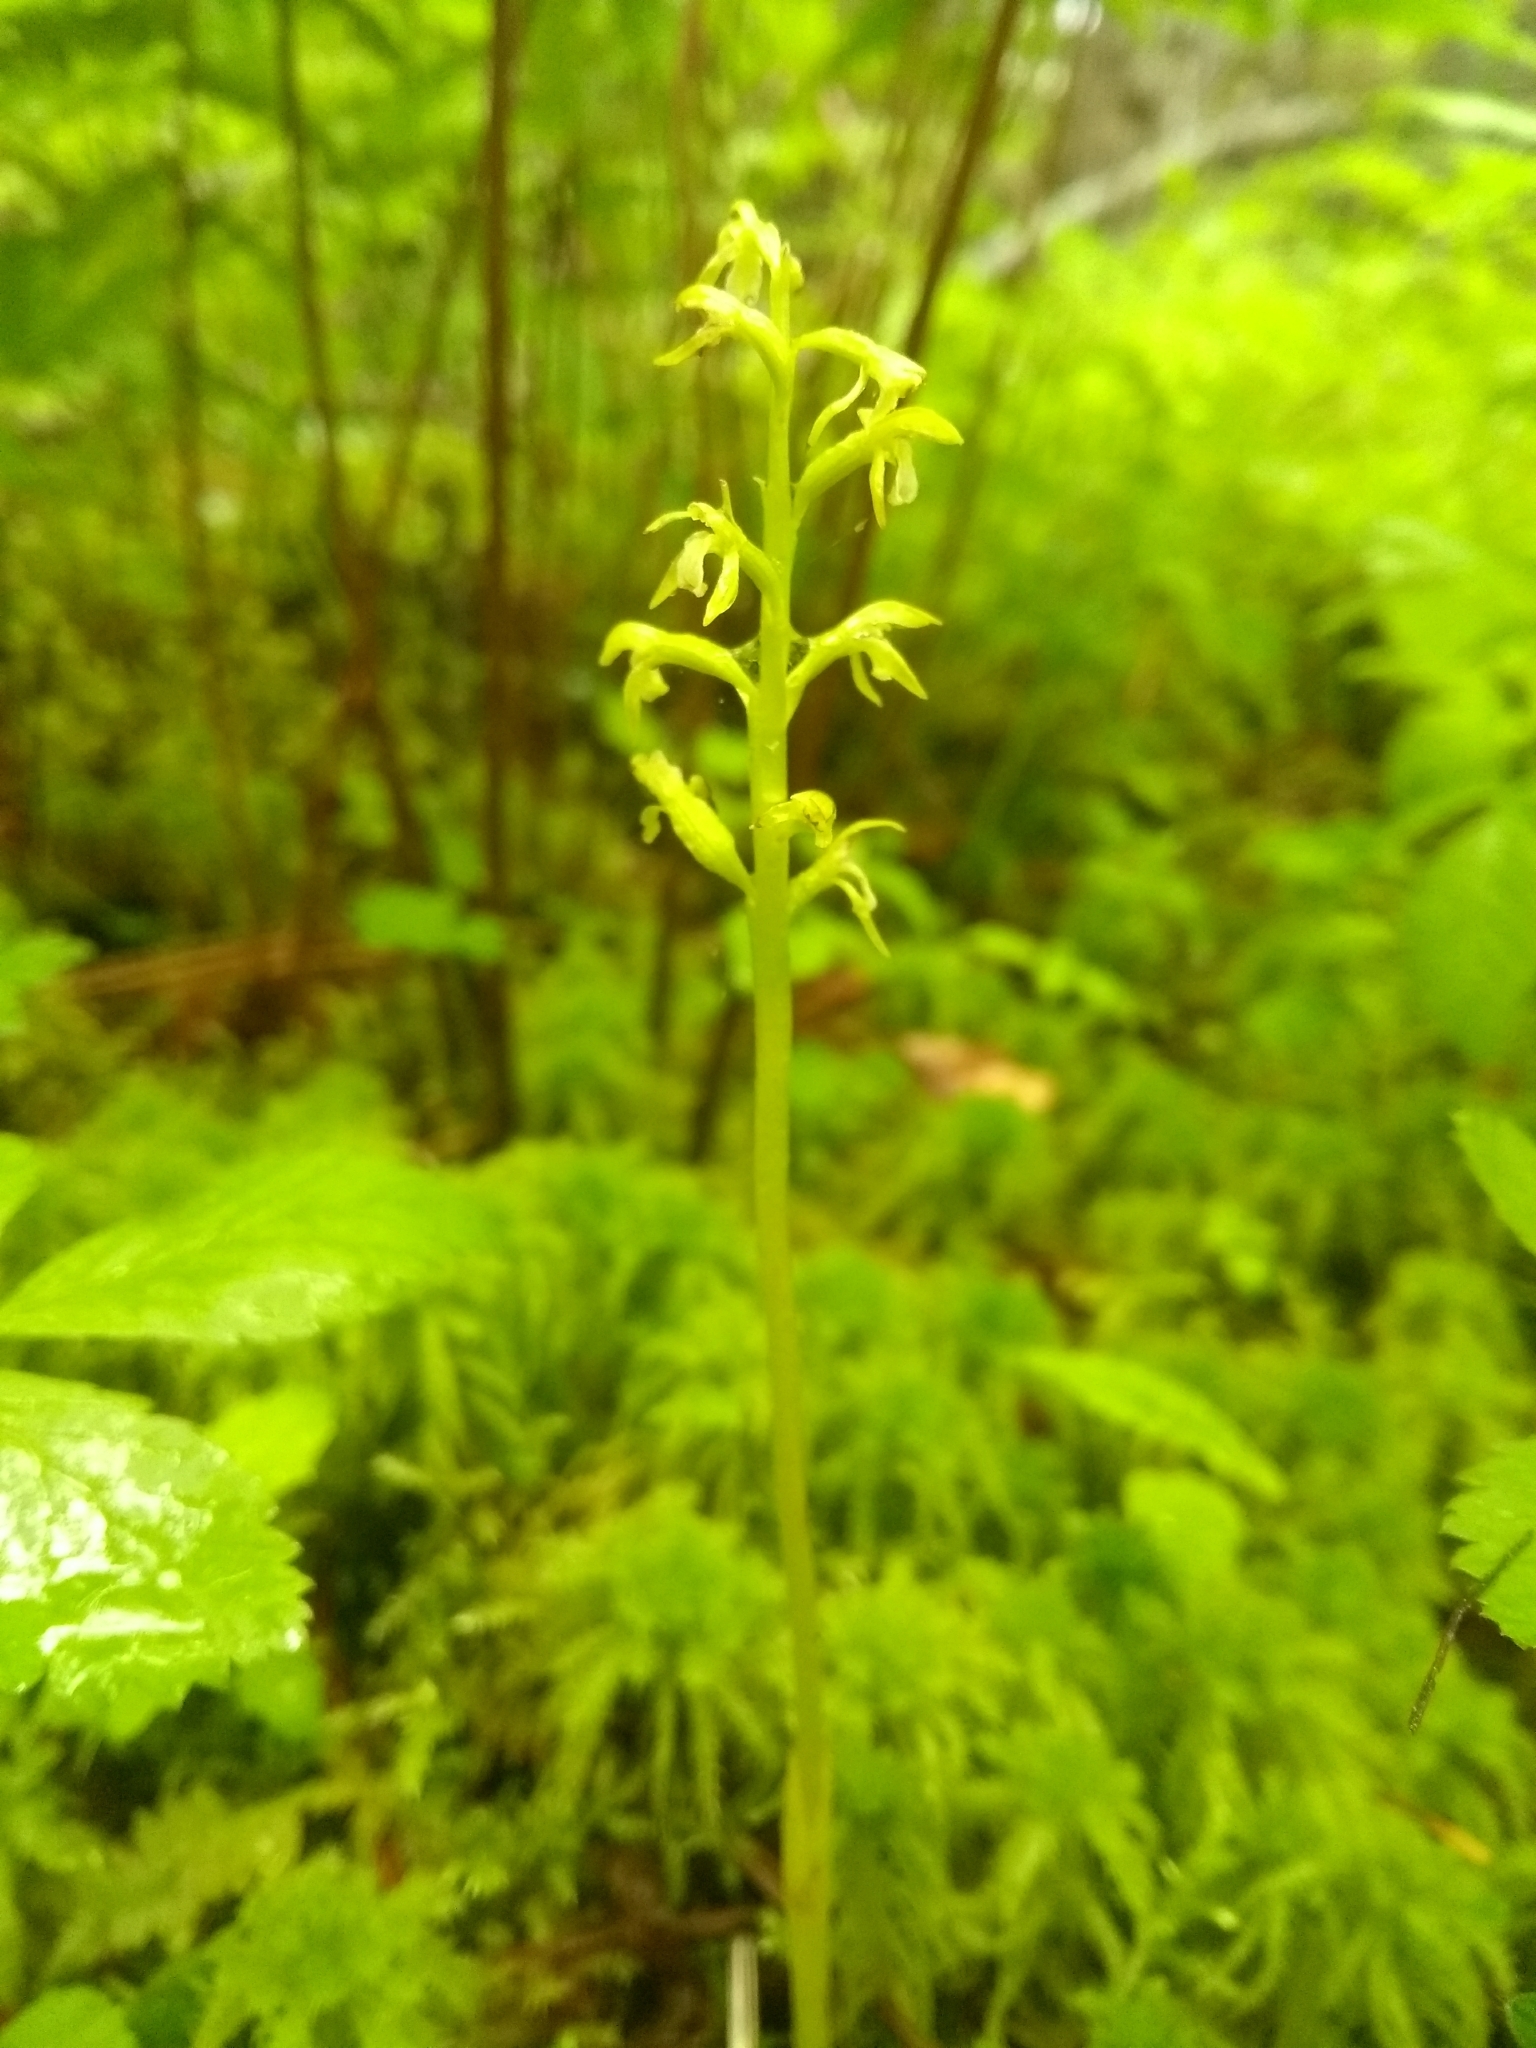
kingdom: Plantae
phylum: Tracheophyta
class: Liliopsida
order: Asparagales
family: Orchidaceae
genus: Corallorhiza
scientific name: Corallorhiza trifida
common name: Yellow coralroot
